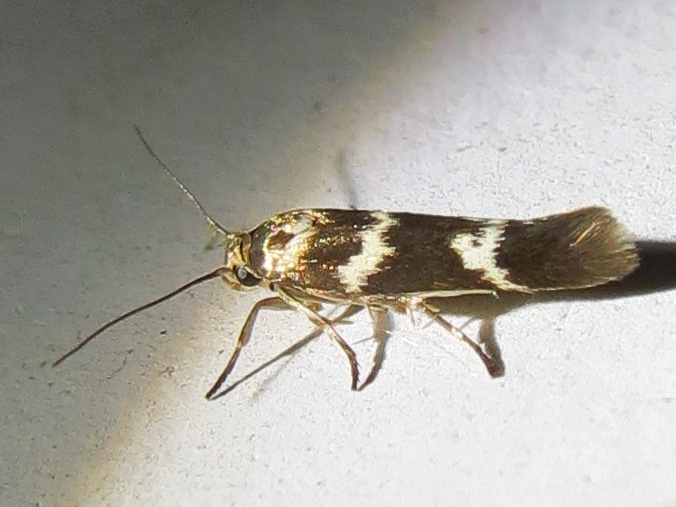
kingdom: Animalia
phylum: Arthropoda
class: Insecta
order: Lepidoptera
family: Scythrididae
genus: Scythris
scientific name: Scythris trivinctella
